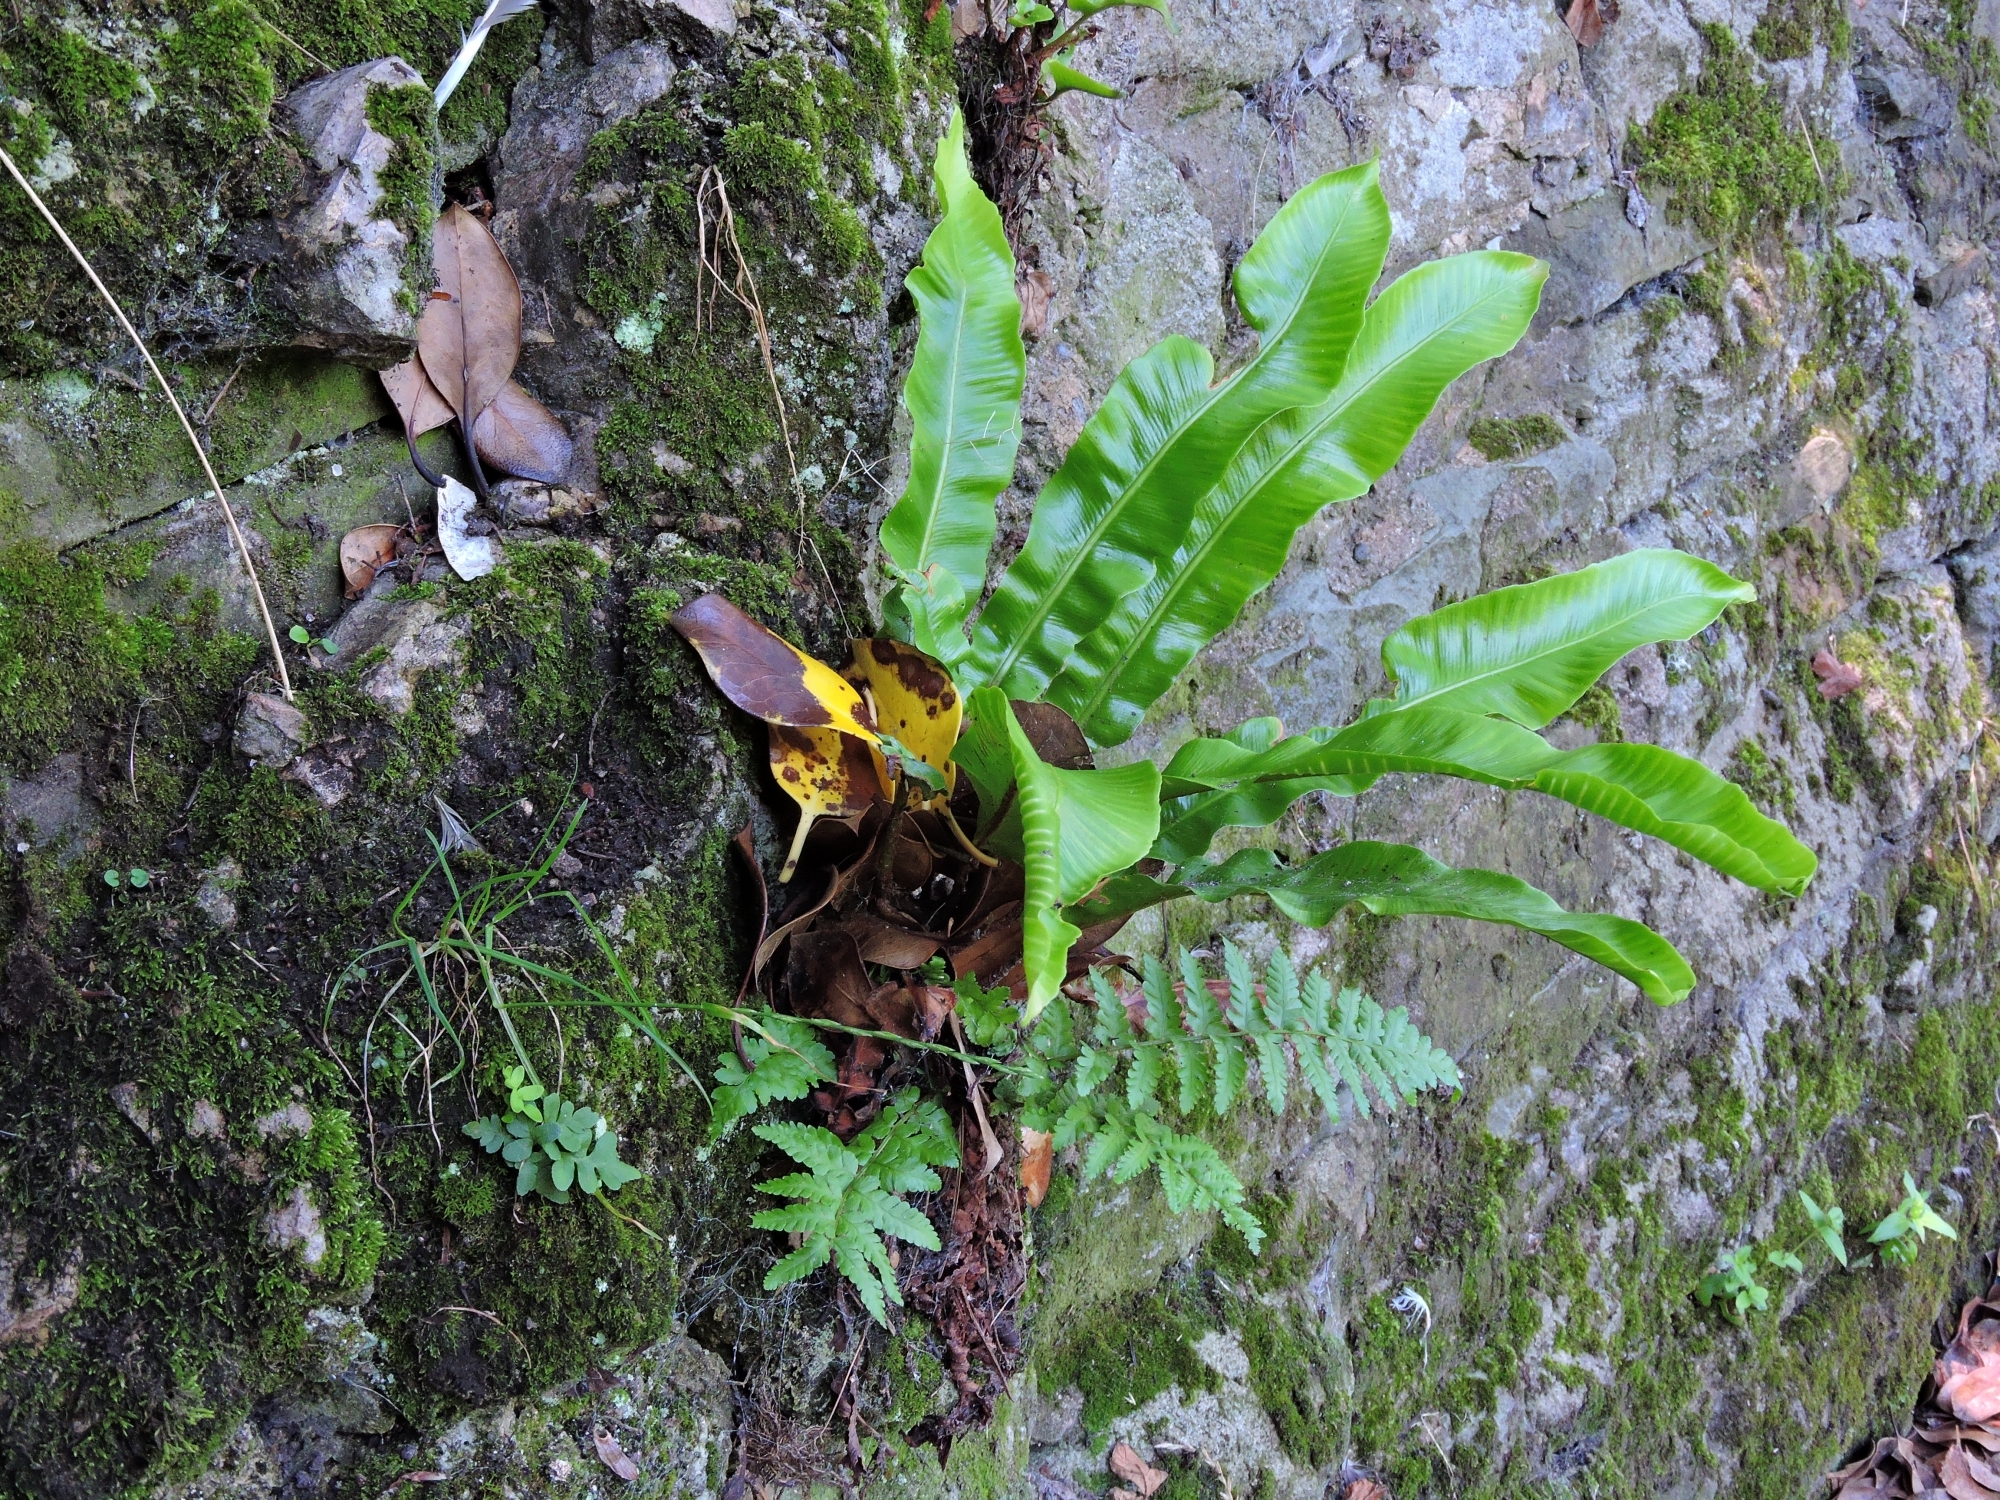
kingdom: Plantae
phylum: Tracheophyta
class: Polypodiopsida
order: Polypodiales
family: Aspleniaceae
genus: Asplenium
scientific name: Asplenium scolopendrium
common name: Hart's-tongue fern
